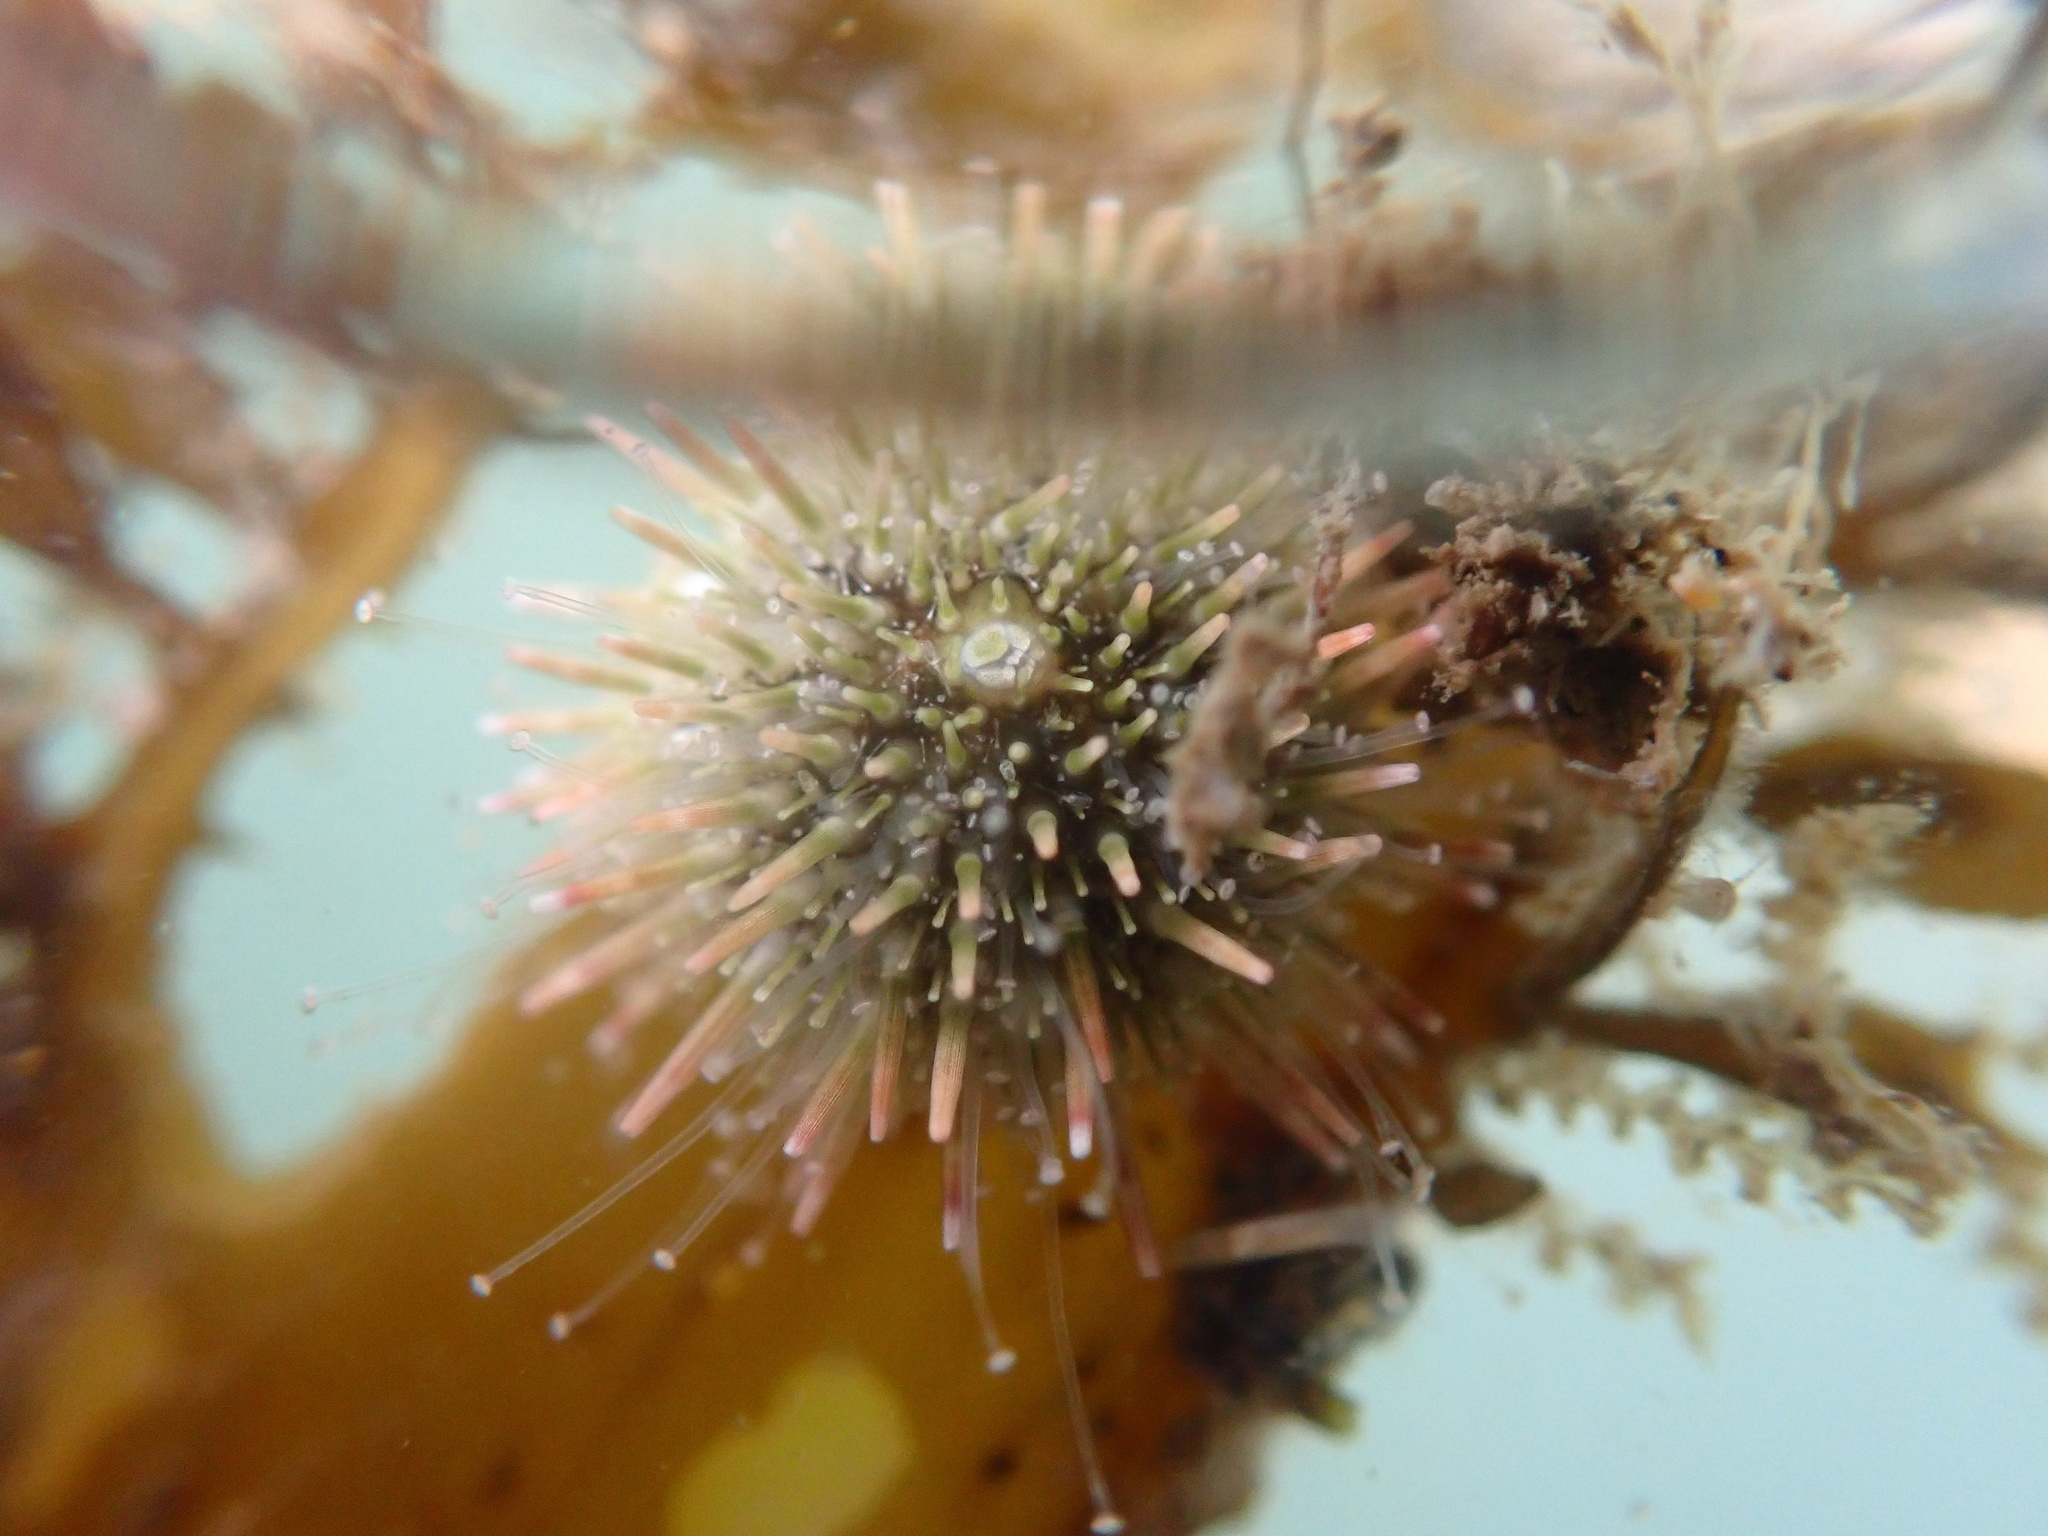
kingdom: Animalia
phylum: Echinodermata
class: Echinoidea
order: Camarodonta
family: Strongylocentrotidae
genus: Strongylocentrotus
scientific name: Strongylocentrotus purpuratus
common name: Purple sea urchin
